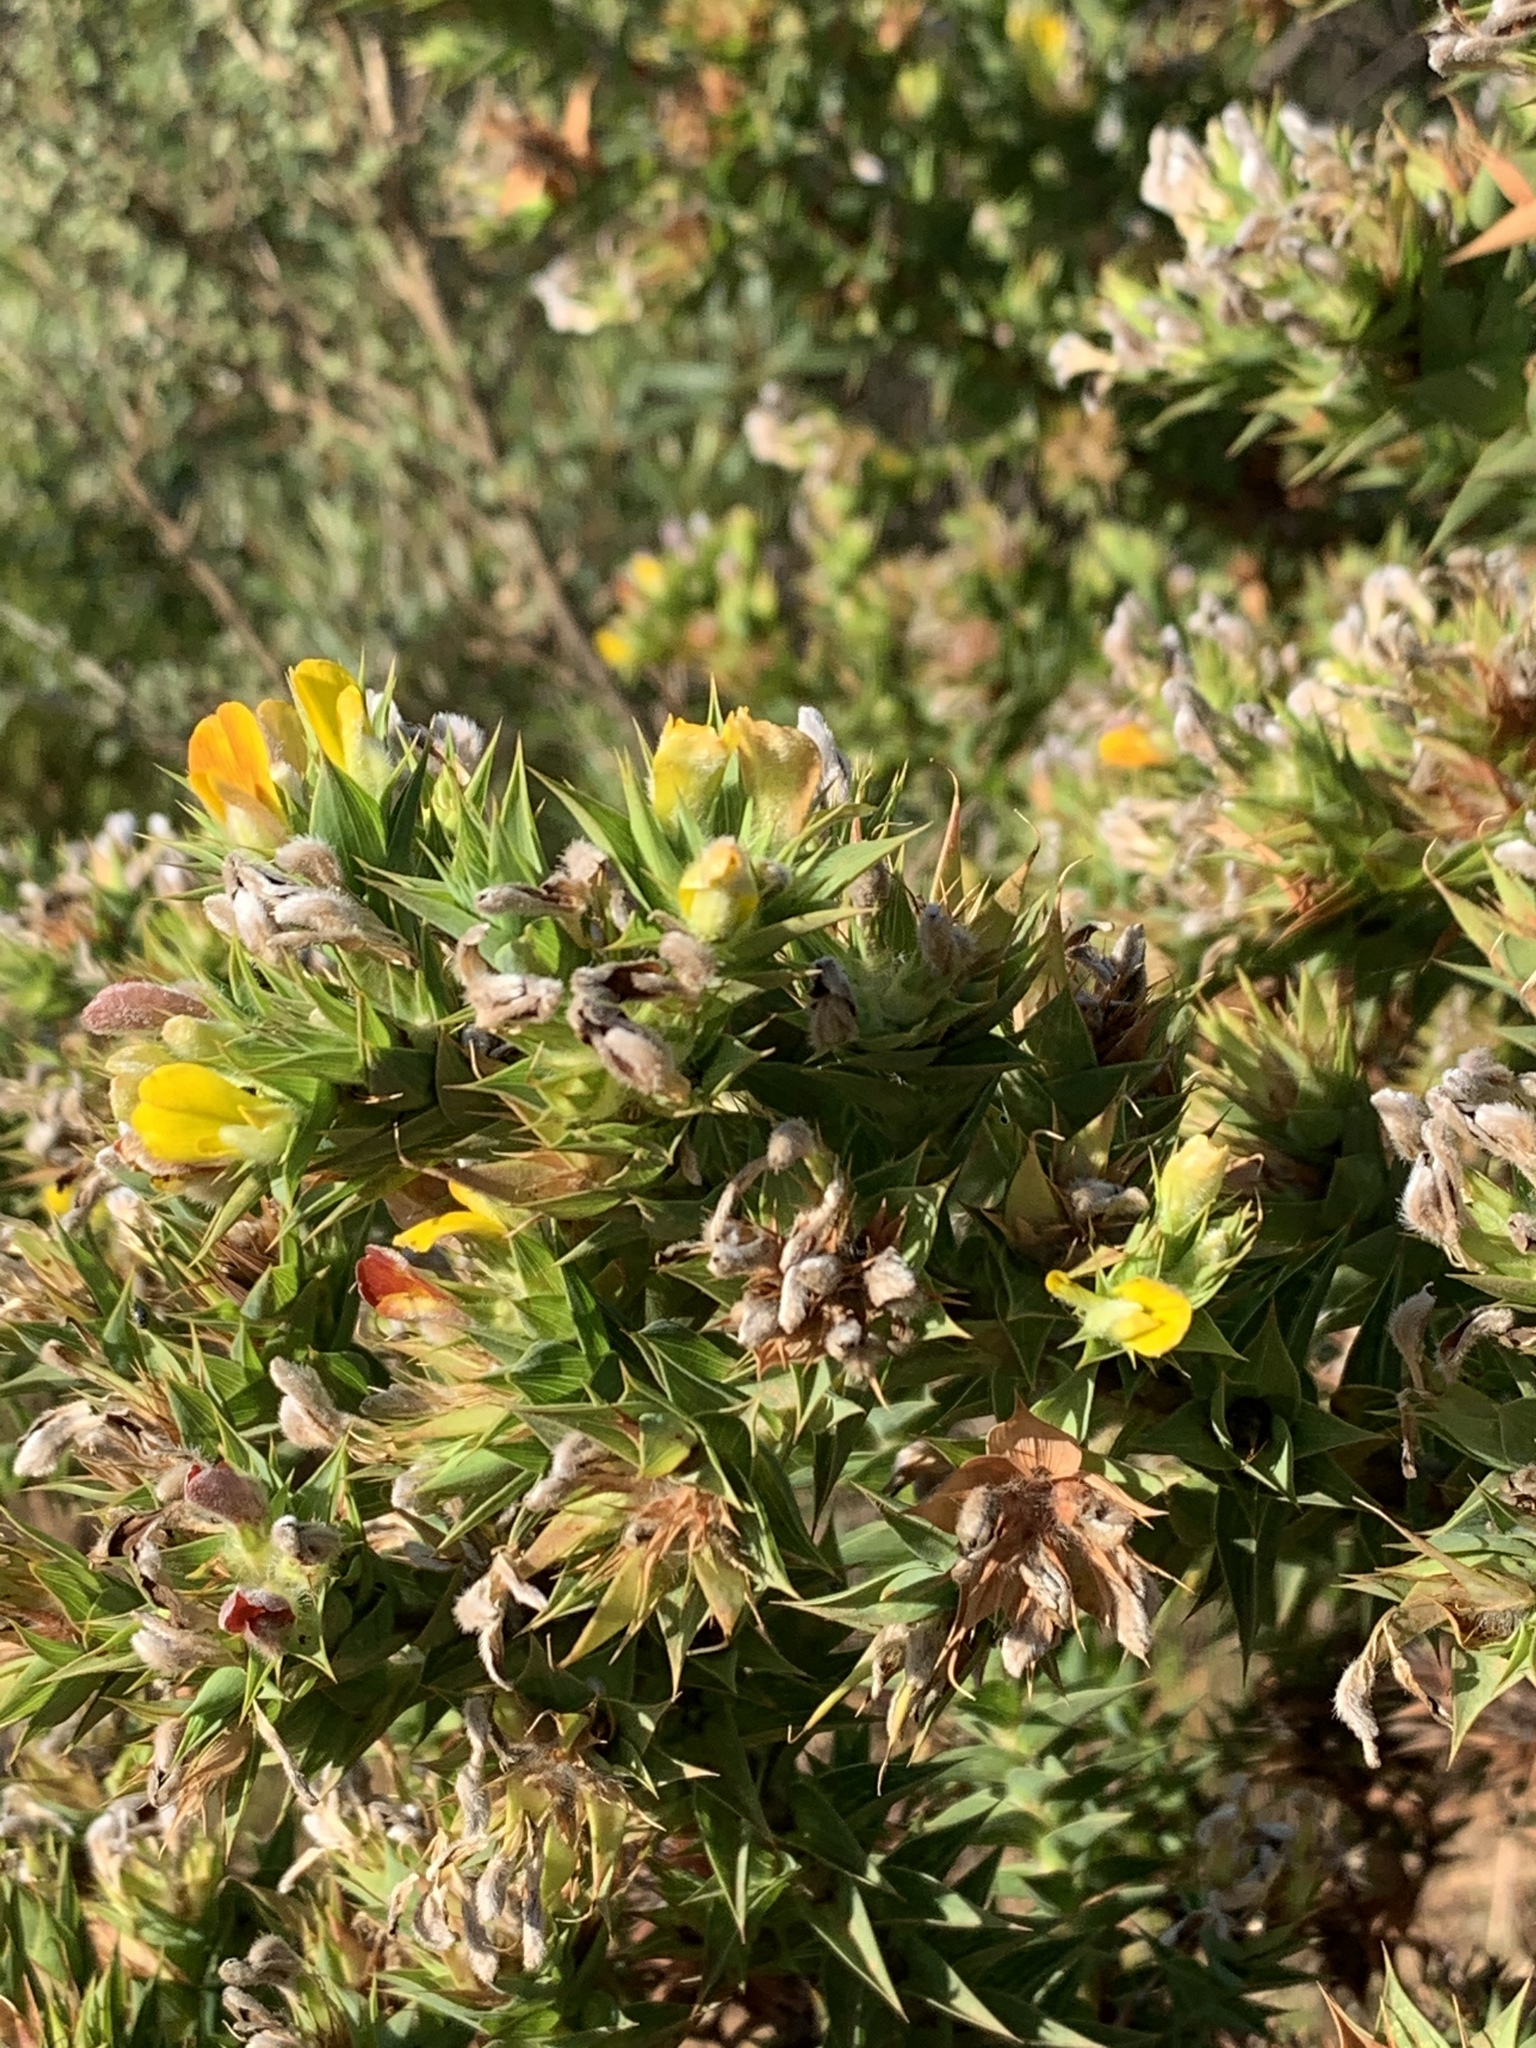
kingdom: Plantae
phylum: Tracheophyta
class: Magnoliopsida
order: Fabales
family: Fabaceae
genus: Aspalathus
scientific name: Aspalathus cordata
